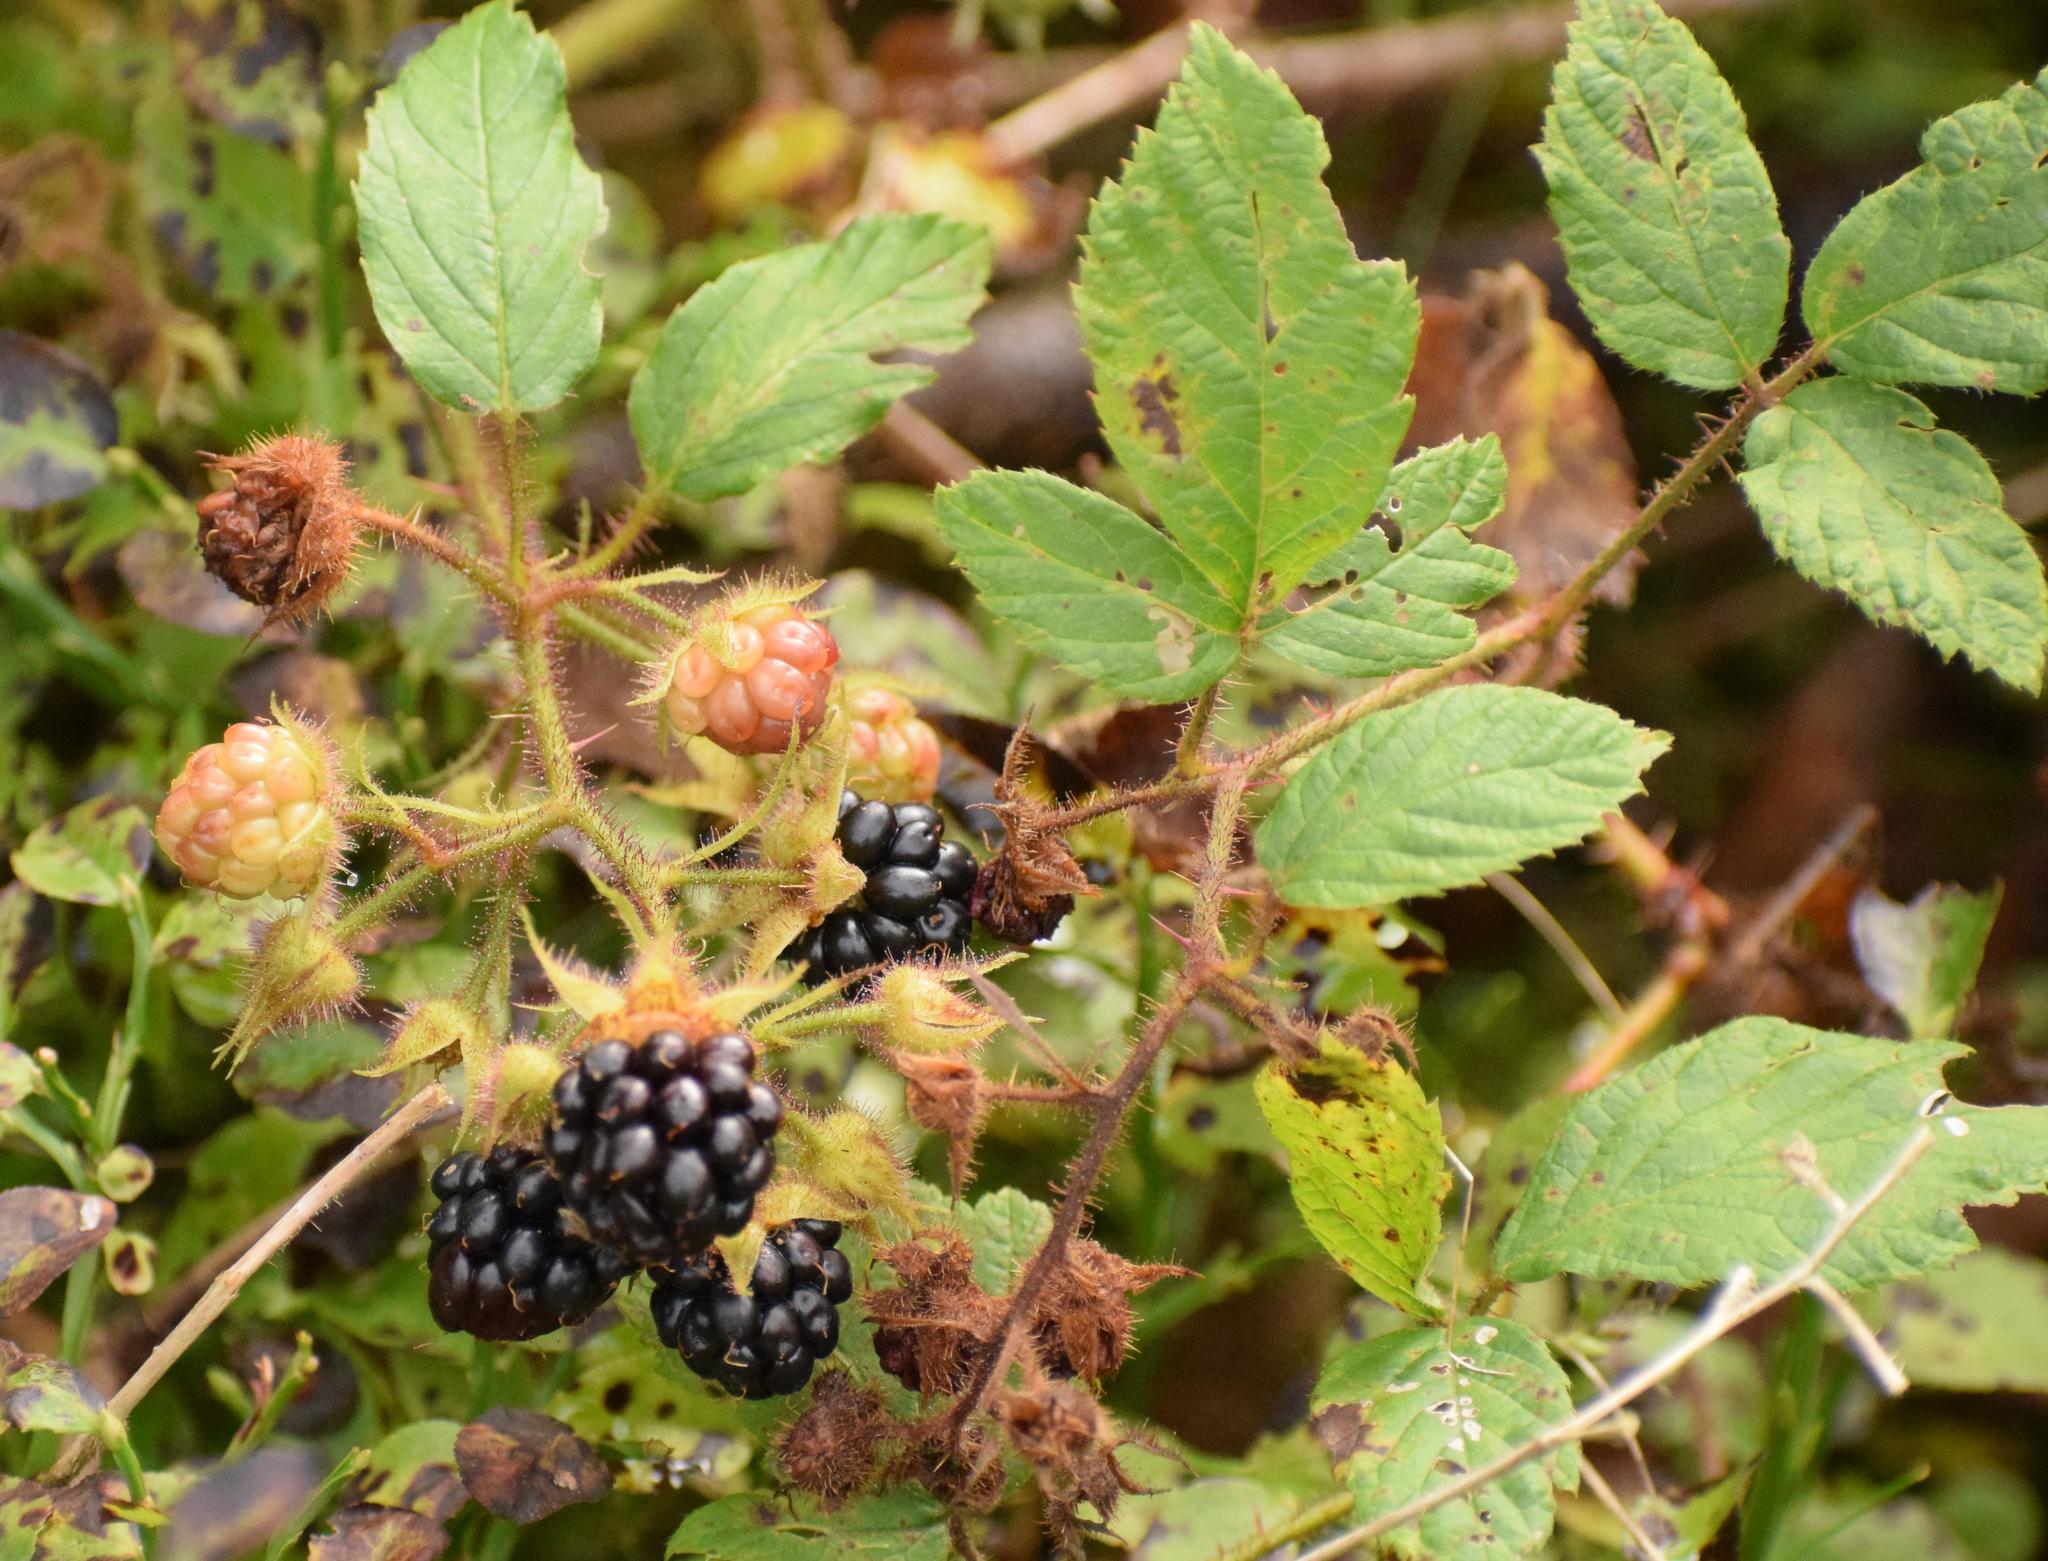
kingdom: Plantae
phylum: Tracheophyta
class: Magnoliopsida
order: Rosales
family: Rosaceae
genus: Rubus
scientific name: Rubus
